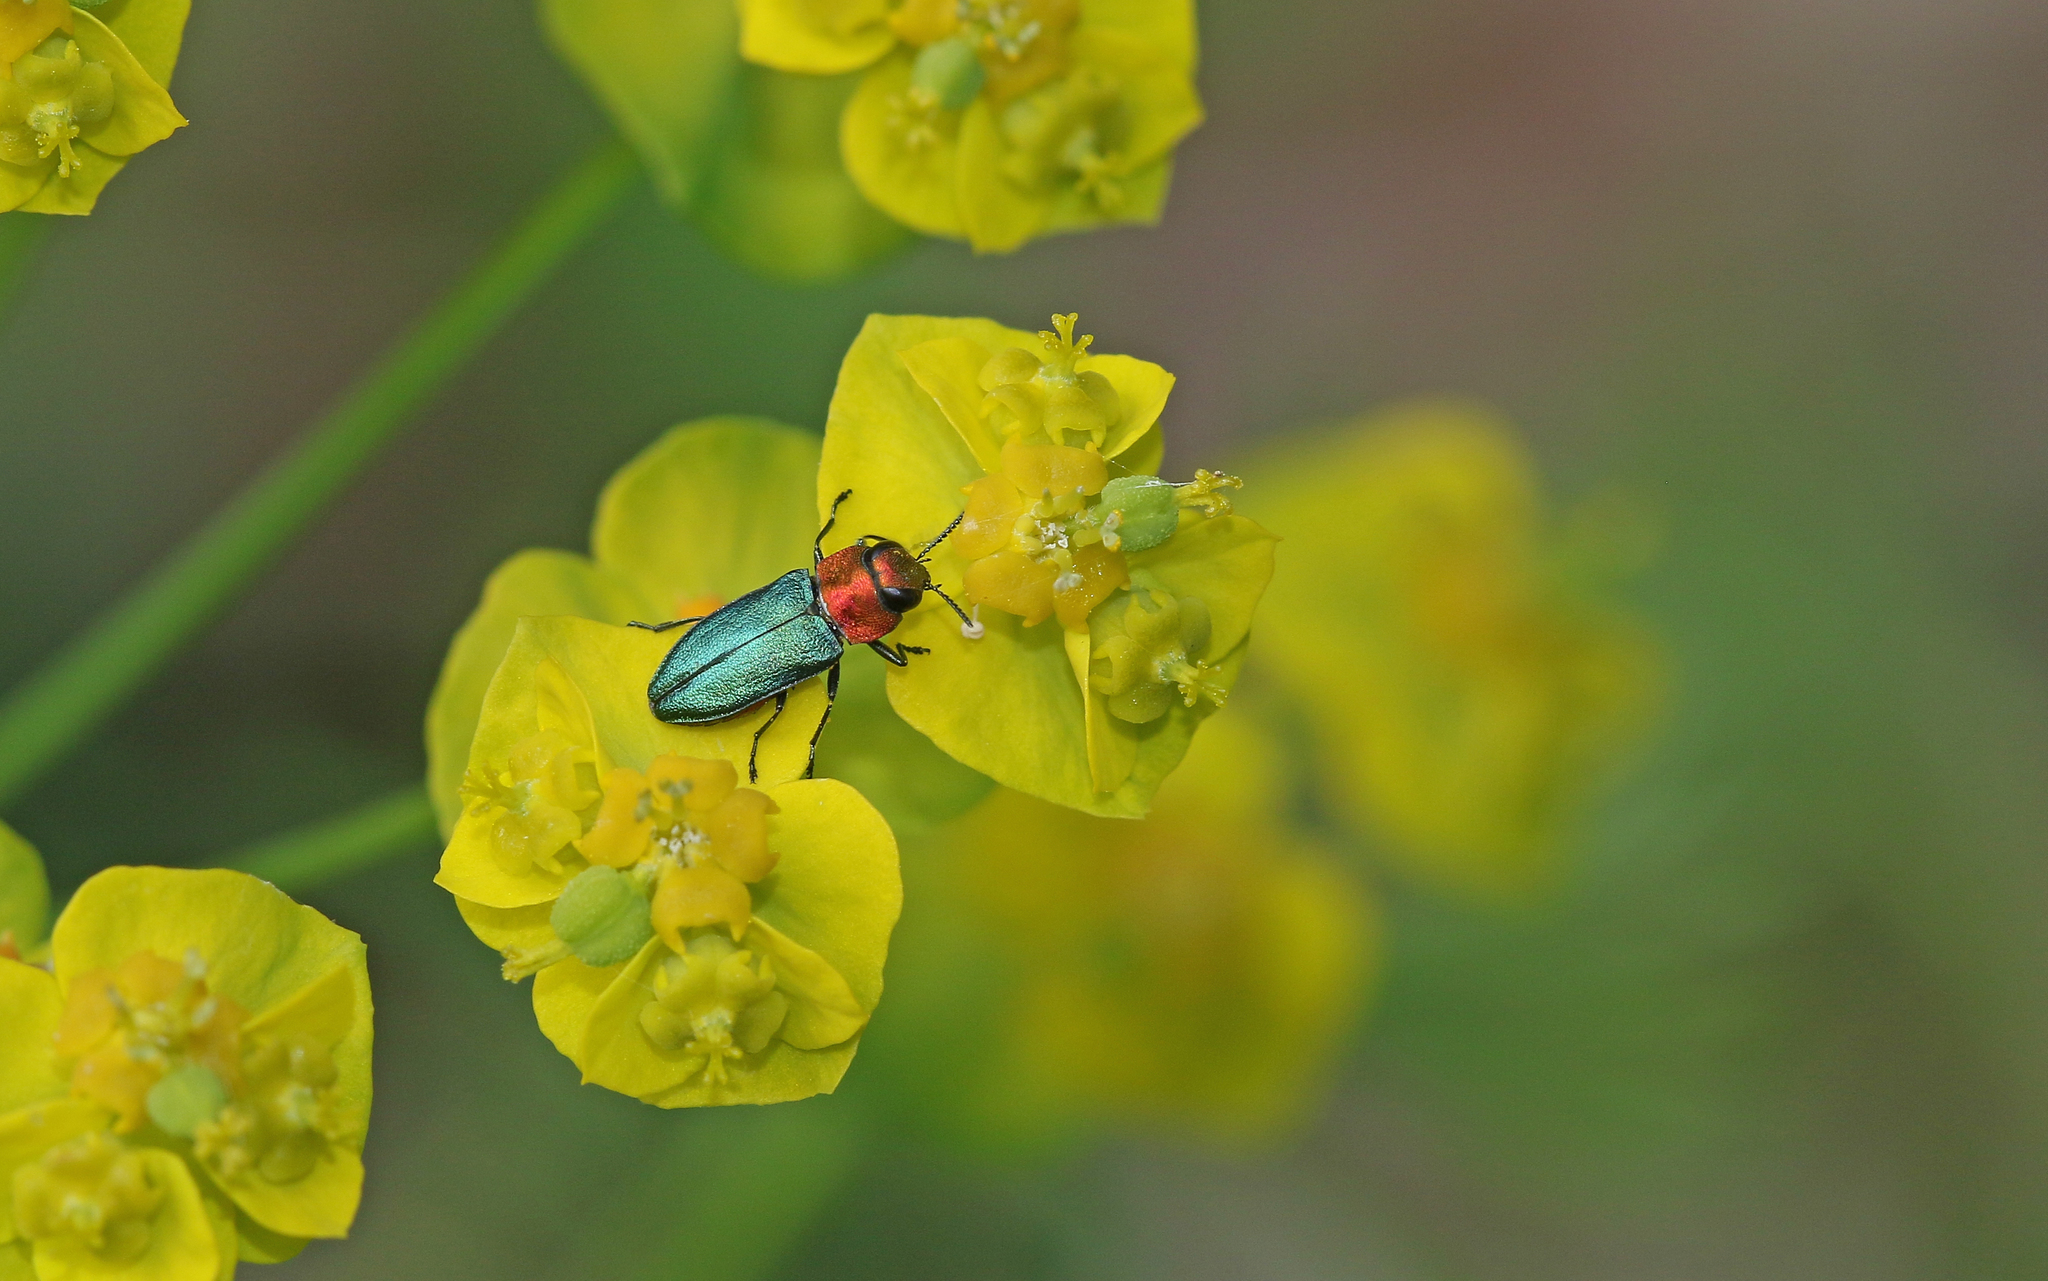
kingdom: Animalia
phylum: Arthropoda
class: Insecta
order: Coleoptera
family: Buprestidae
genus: Anthaxia
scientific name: Anthaxia nitidula
